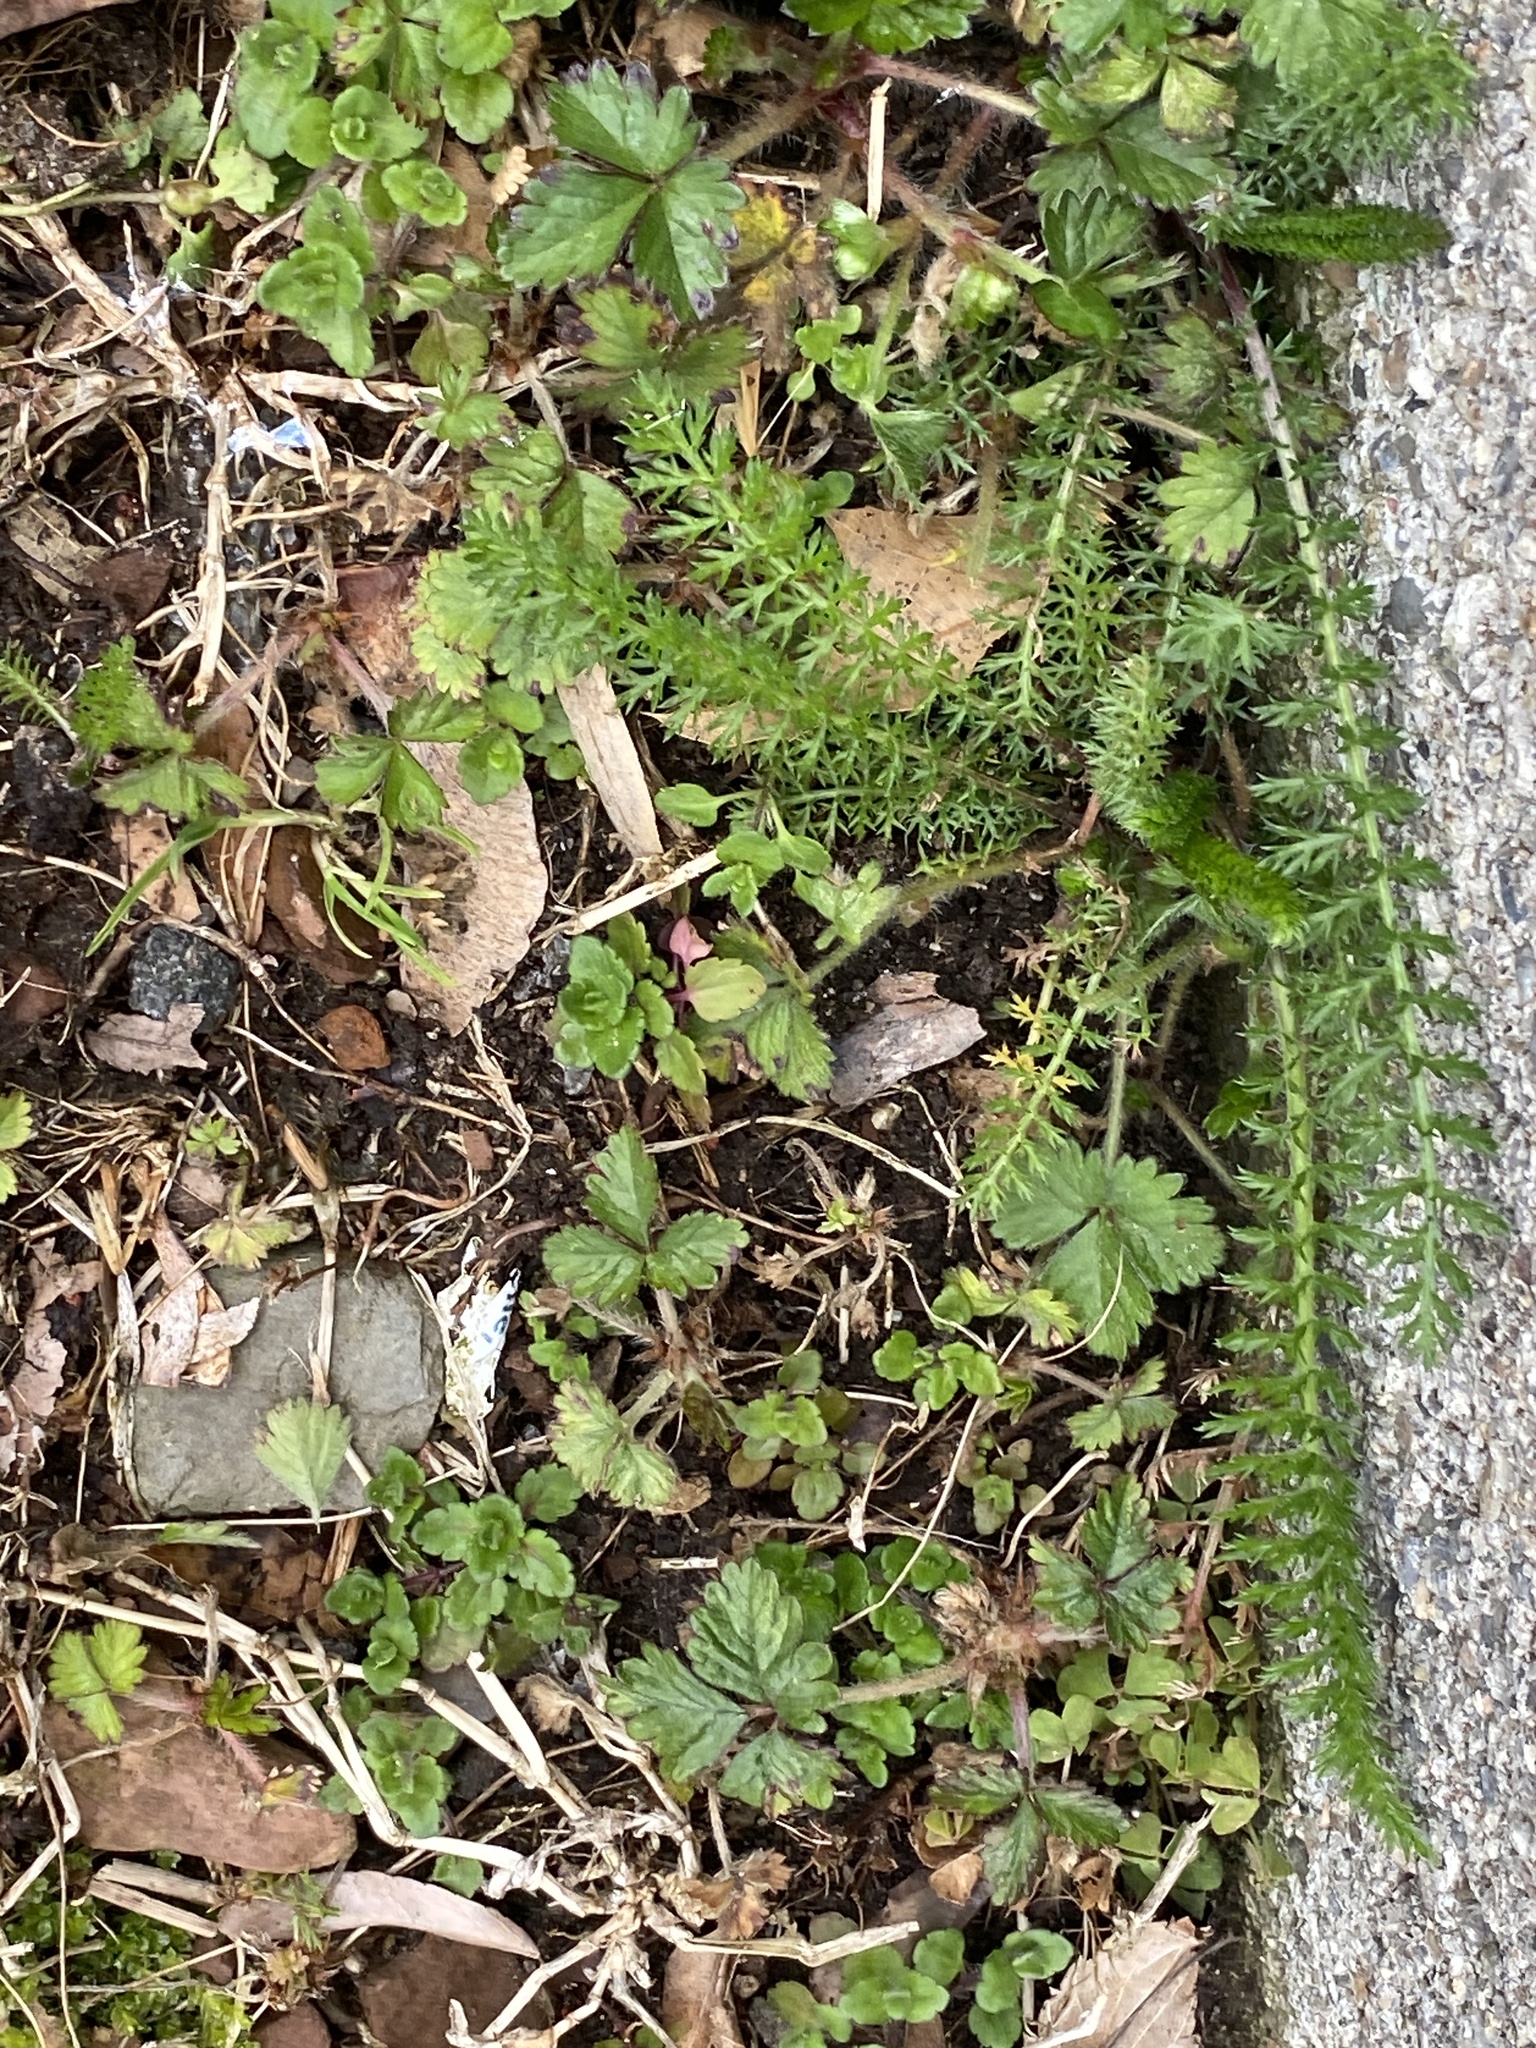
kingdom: Plantae
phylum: Tracheophyta
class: Magnoliopsida
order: Asterales
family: Asteraceae
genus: Achillea
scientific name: Achillea millefolium
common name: Yarrow
